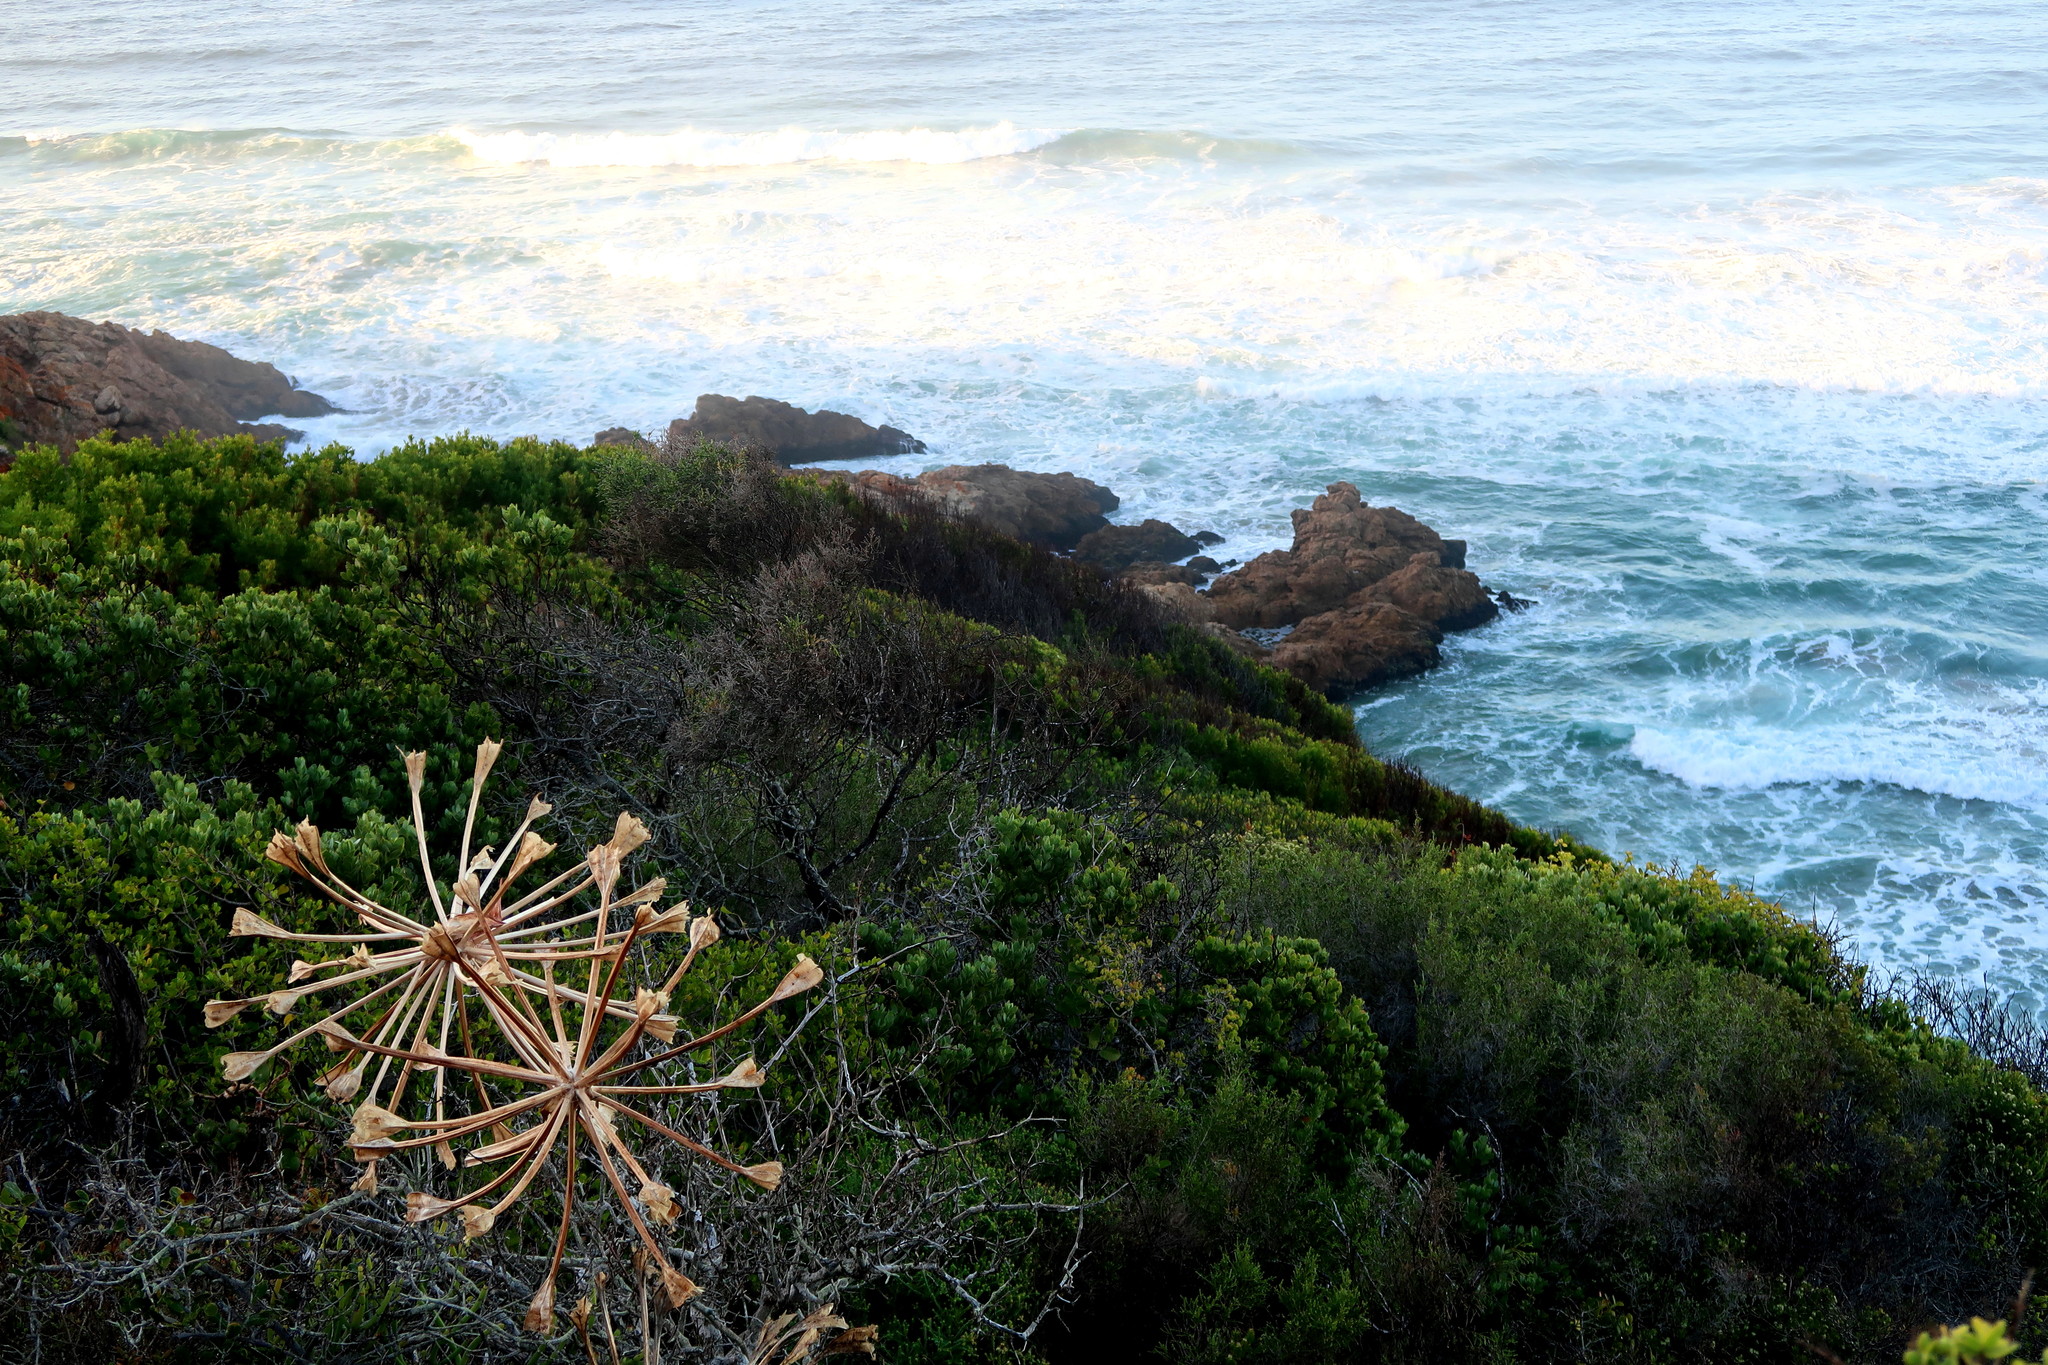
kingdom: Plantae
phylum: Tracheophyta
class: Liliopsida
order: Asparagales
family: Amaryllidaceae
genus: Brunsvigia
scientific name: Brunsvigia orientalis
